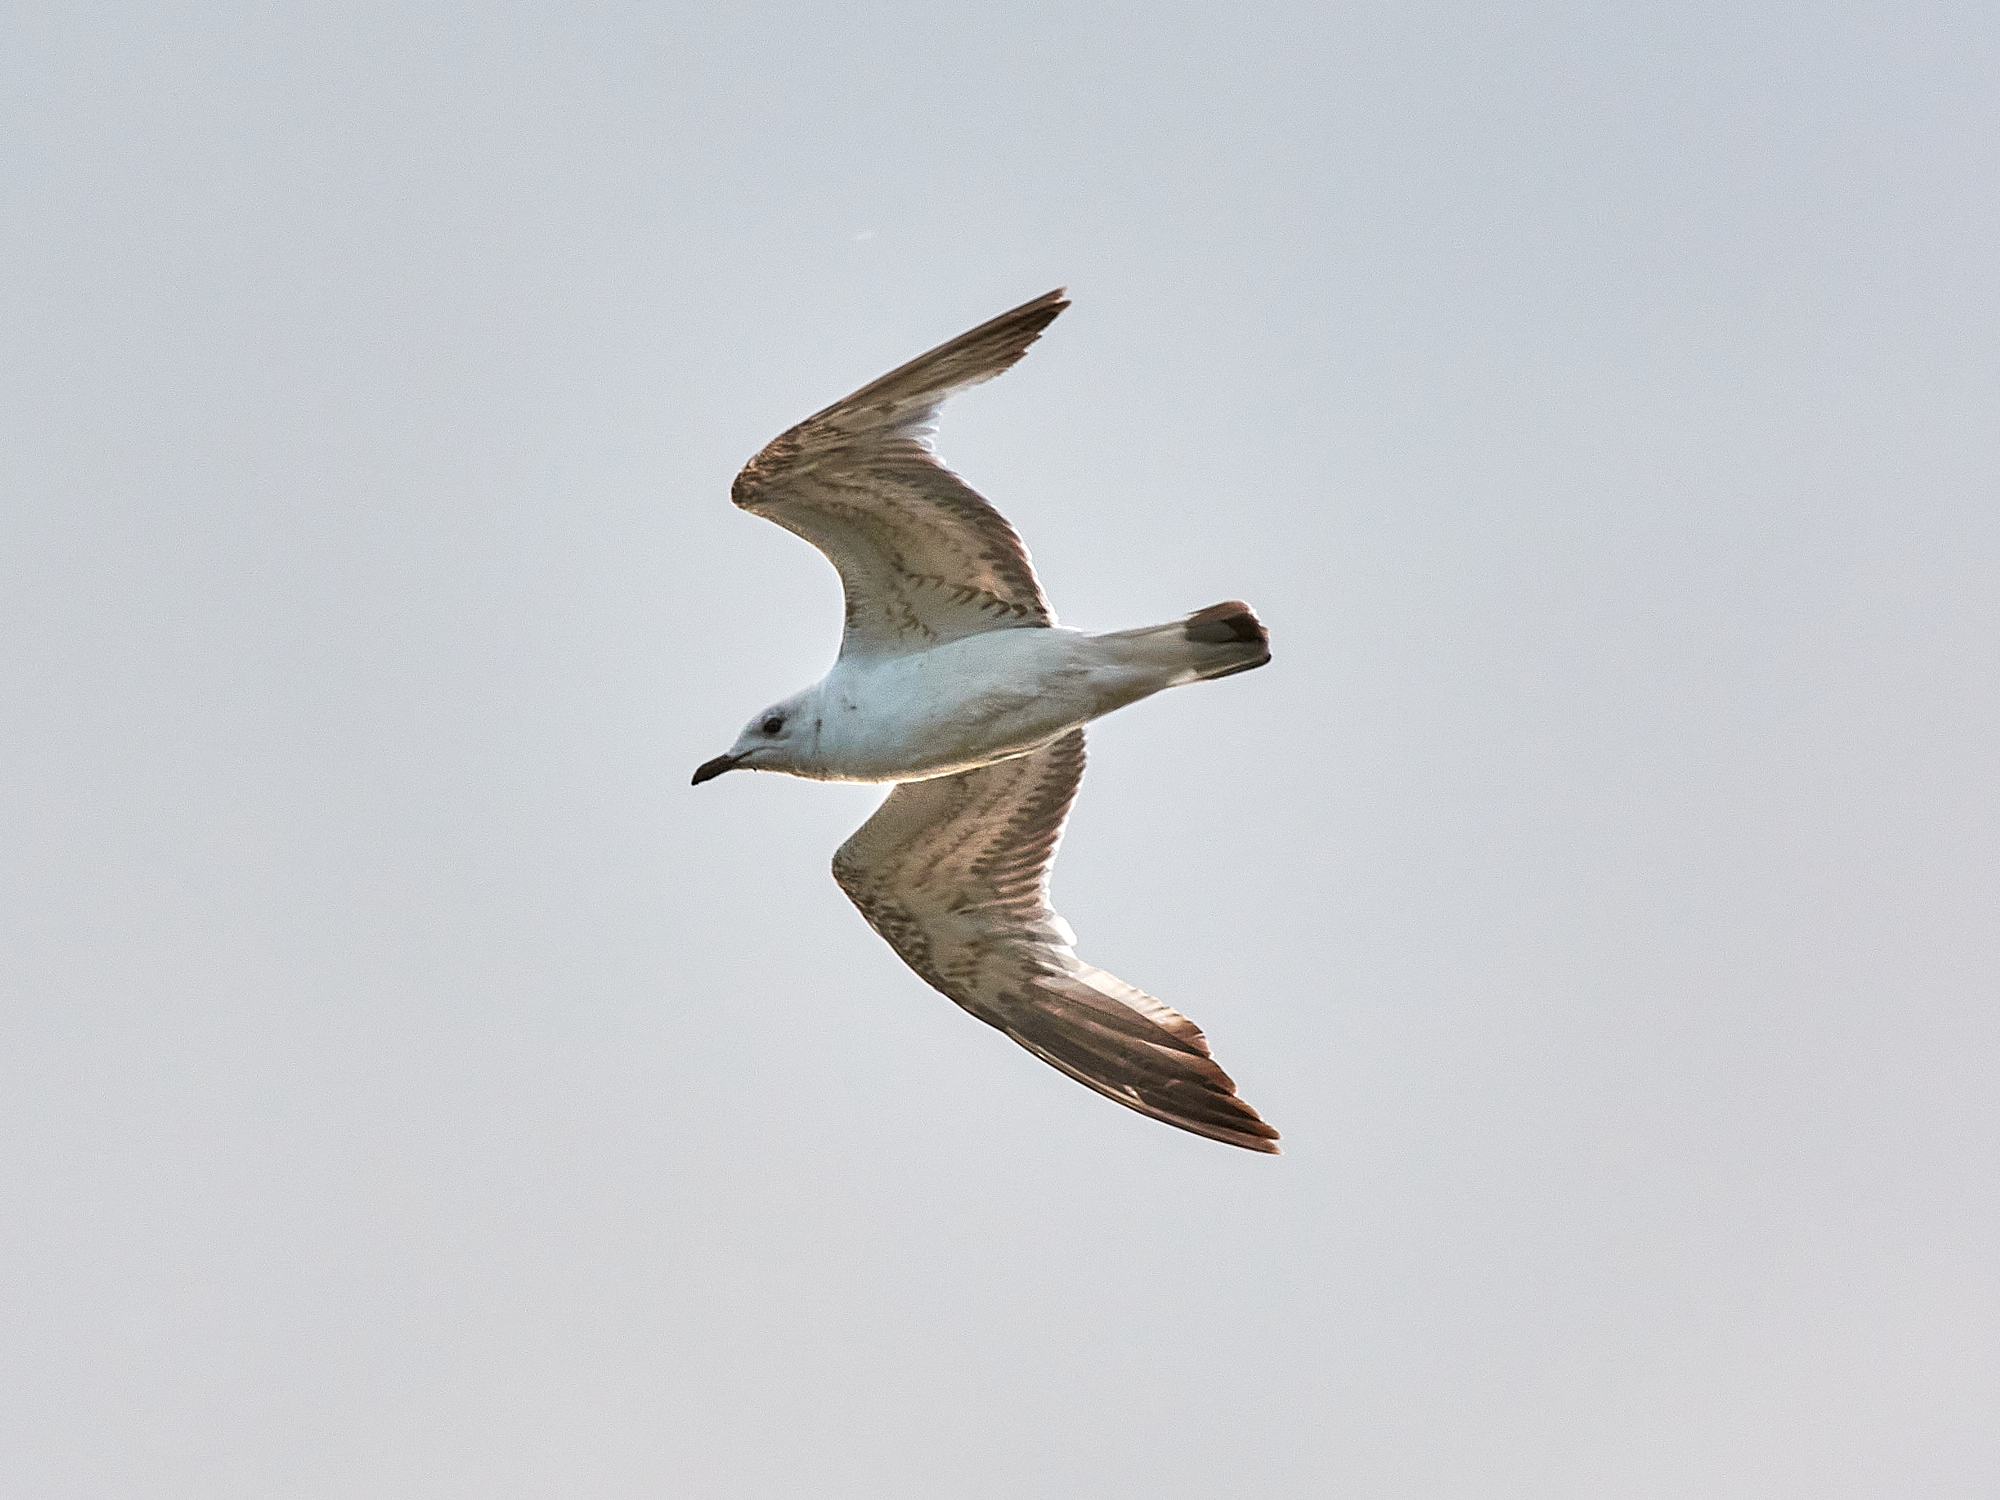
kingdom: Animalia
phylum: Chordata
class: Aves
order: Charadriiformes
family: Laridae
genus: Larus
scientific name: Larus canus
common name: Mew gull
